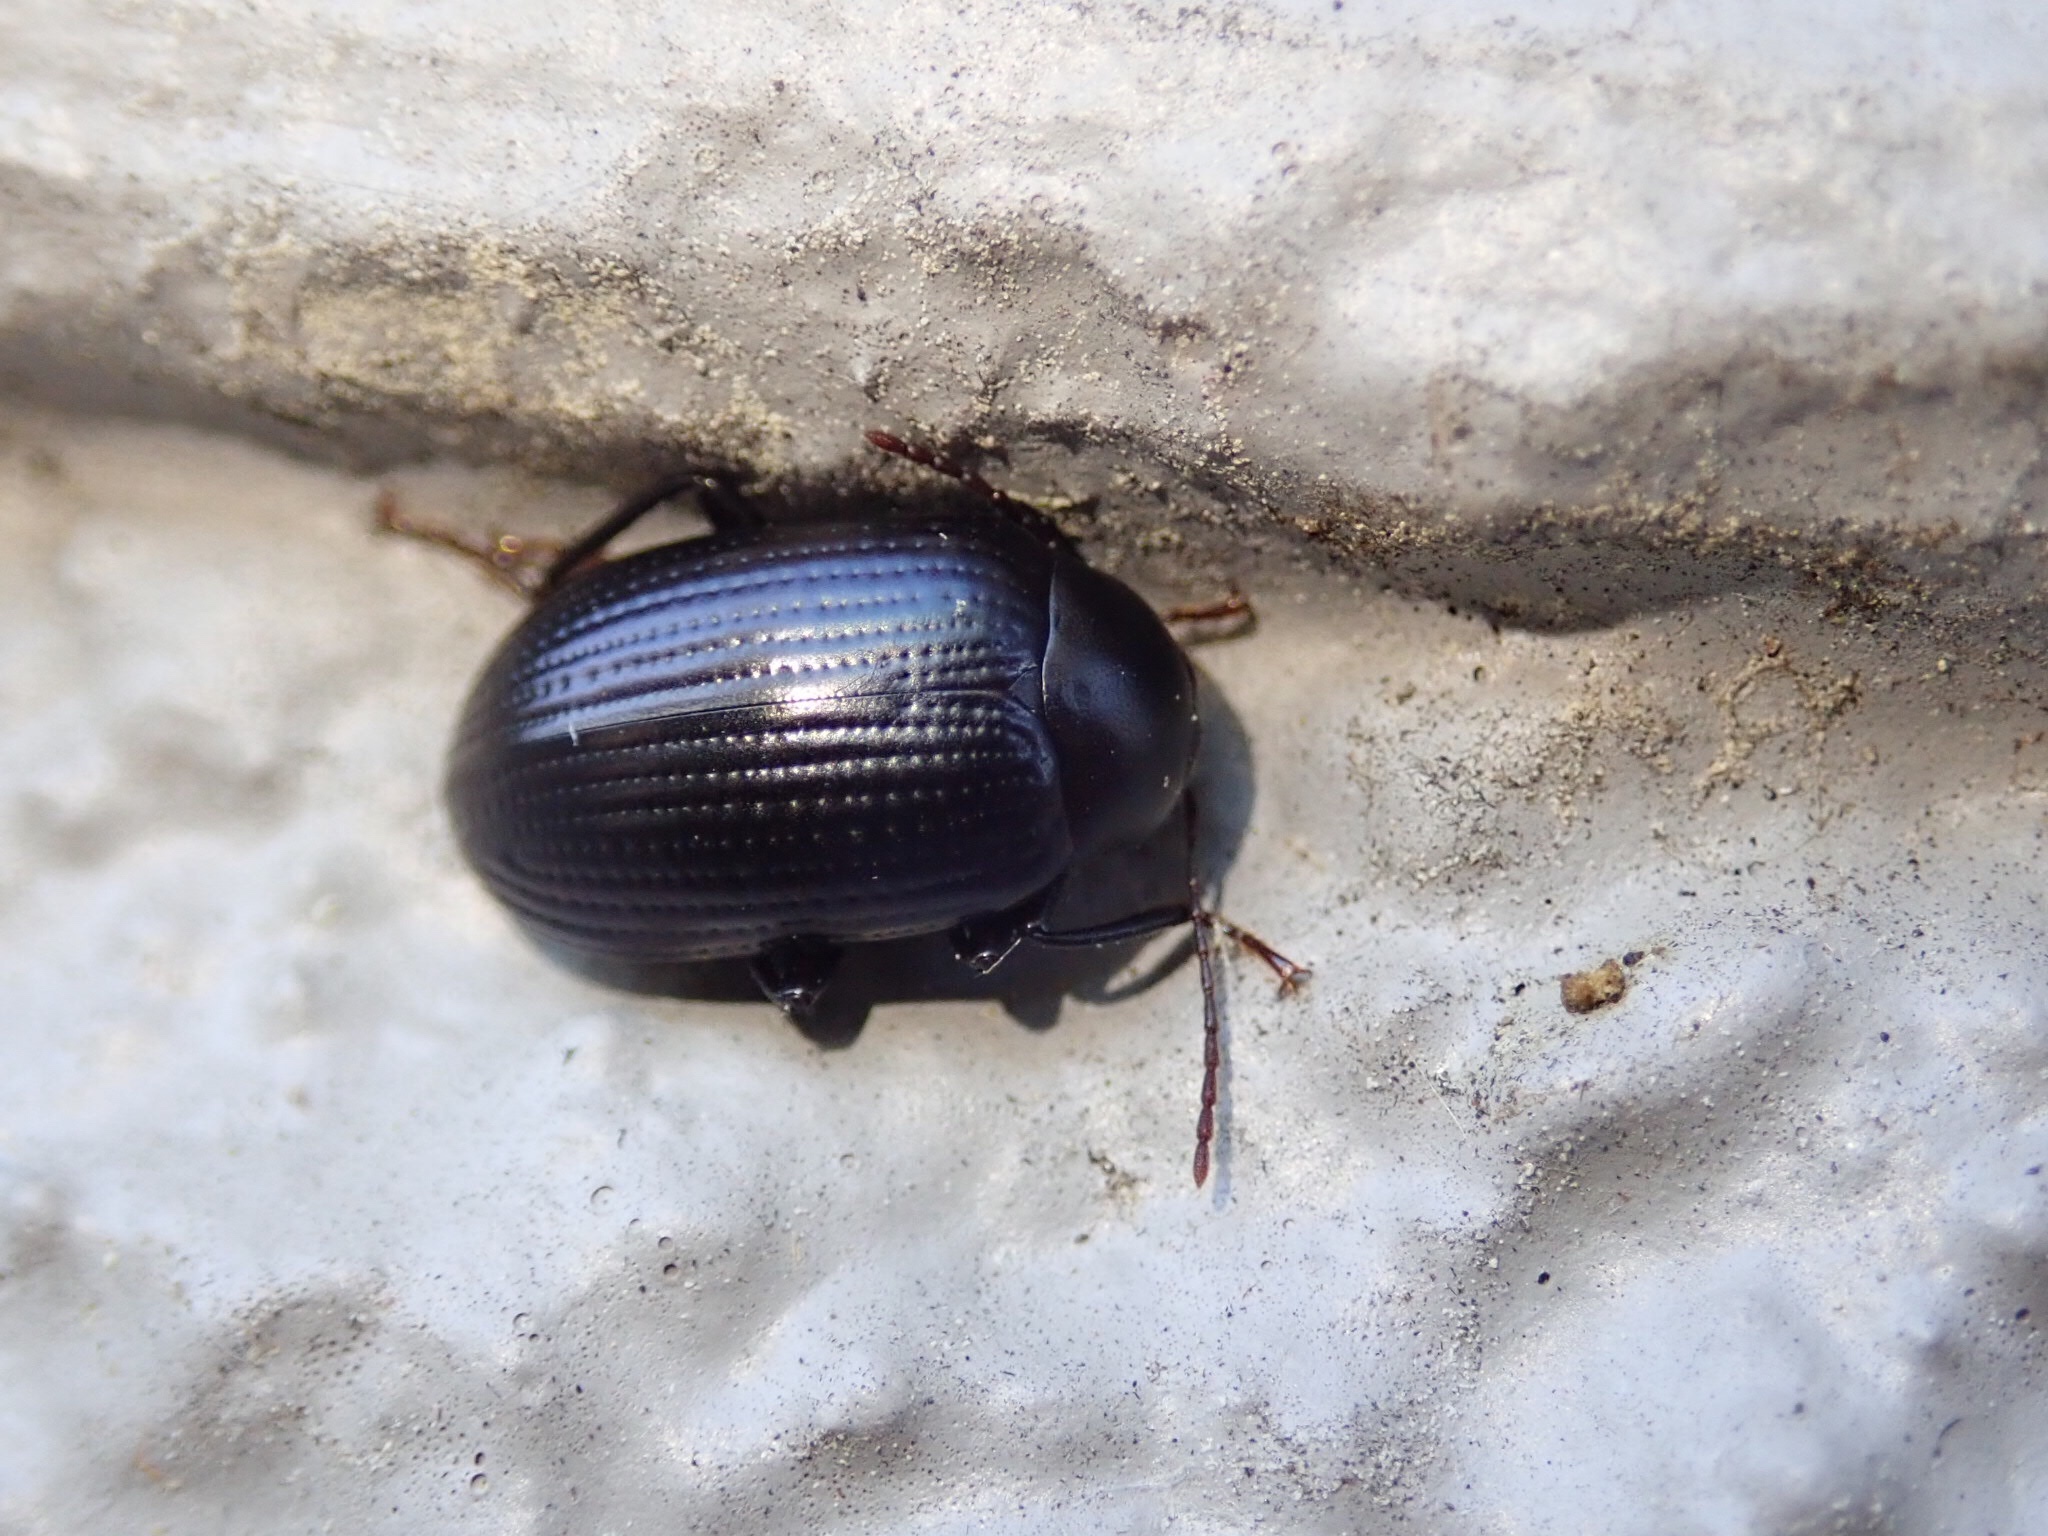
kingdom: Animalia
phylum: Arthropoda
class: Insecta
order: Coleoptera
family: Tenebrionidae
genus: Amarygmus
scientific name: Amarygmus
